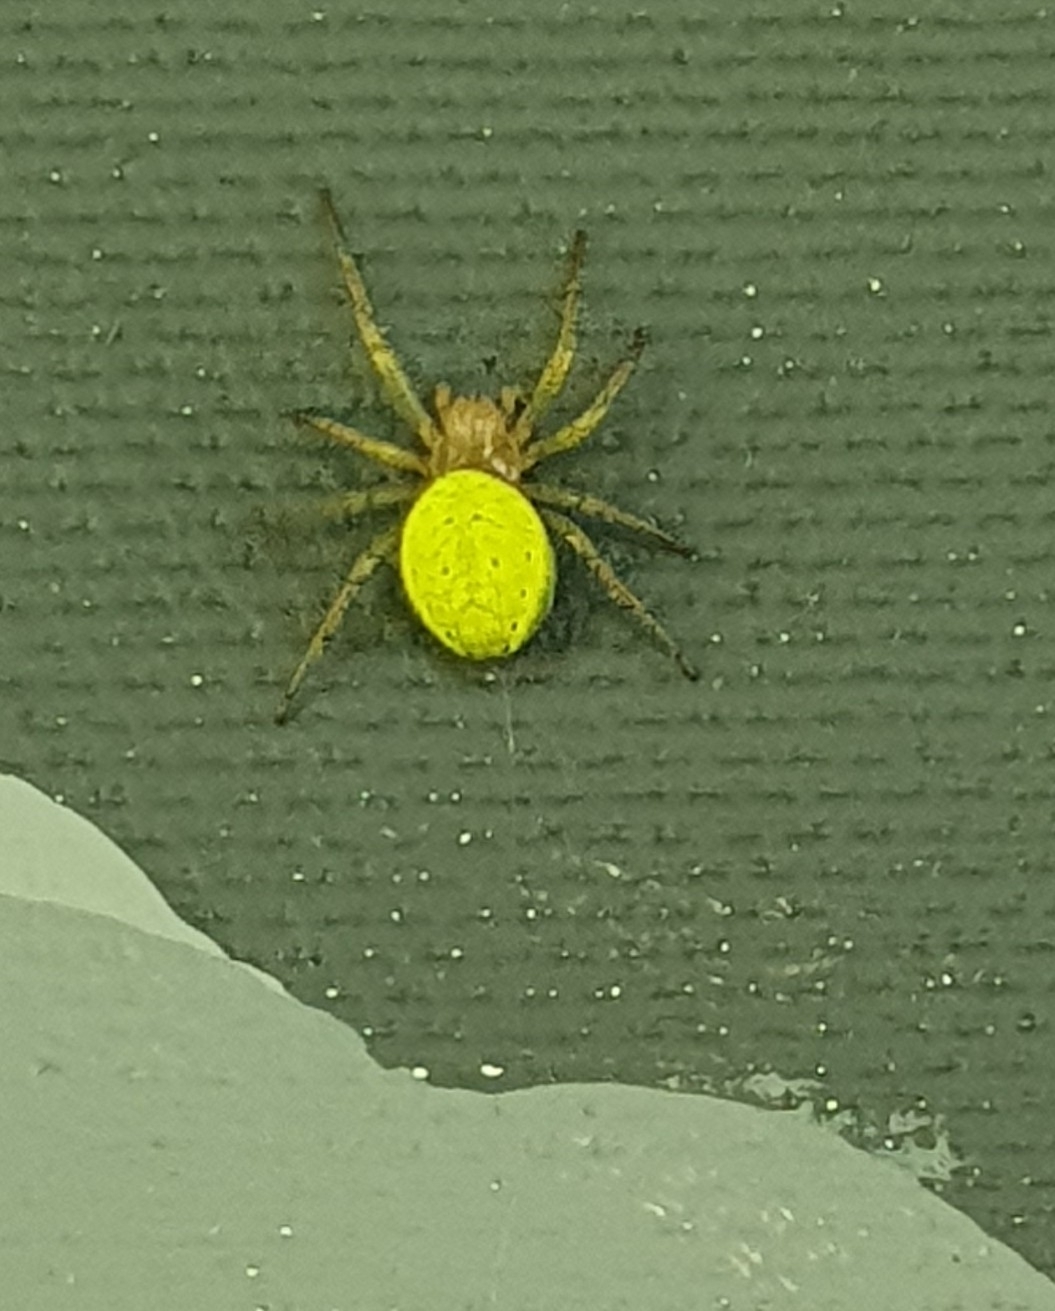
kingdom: Animalia
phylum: Arthropoda
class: Arachnida
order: Araneae
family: Araneidae
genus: Araniella
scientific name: Araniella
